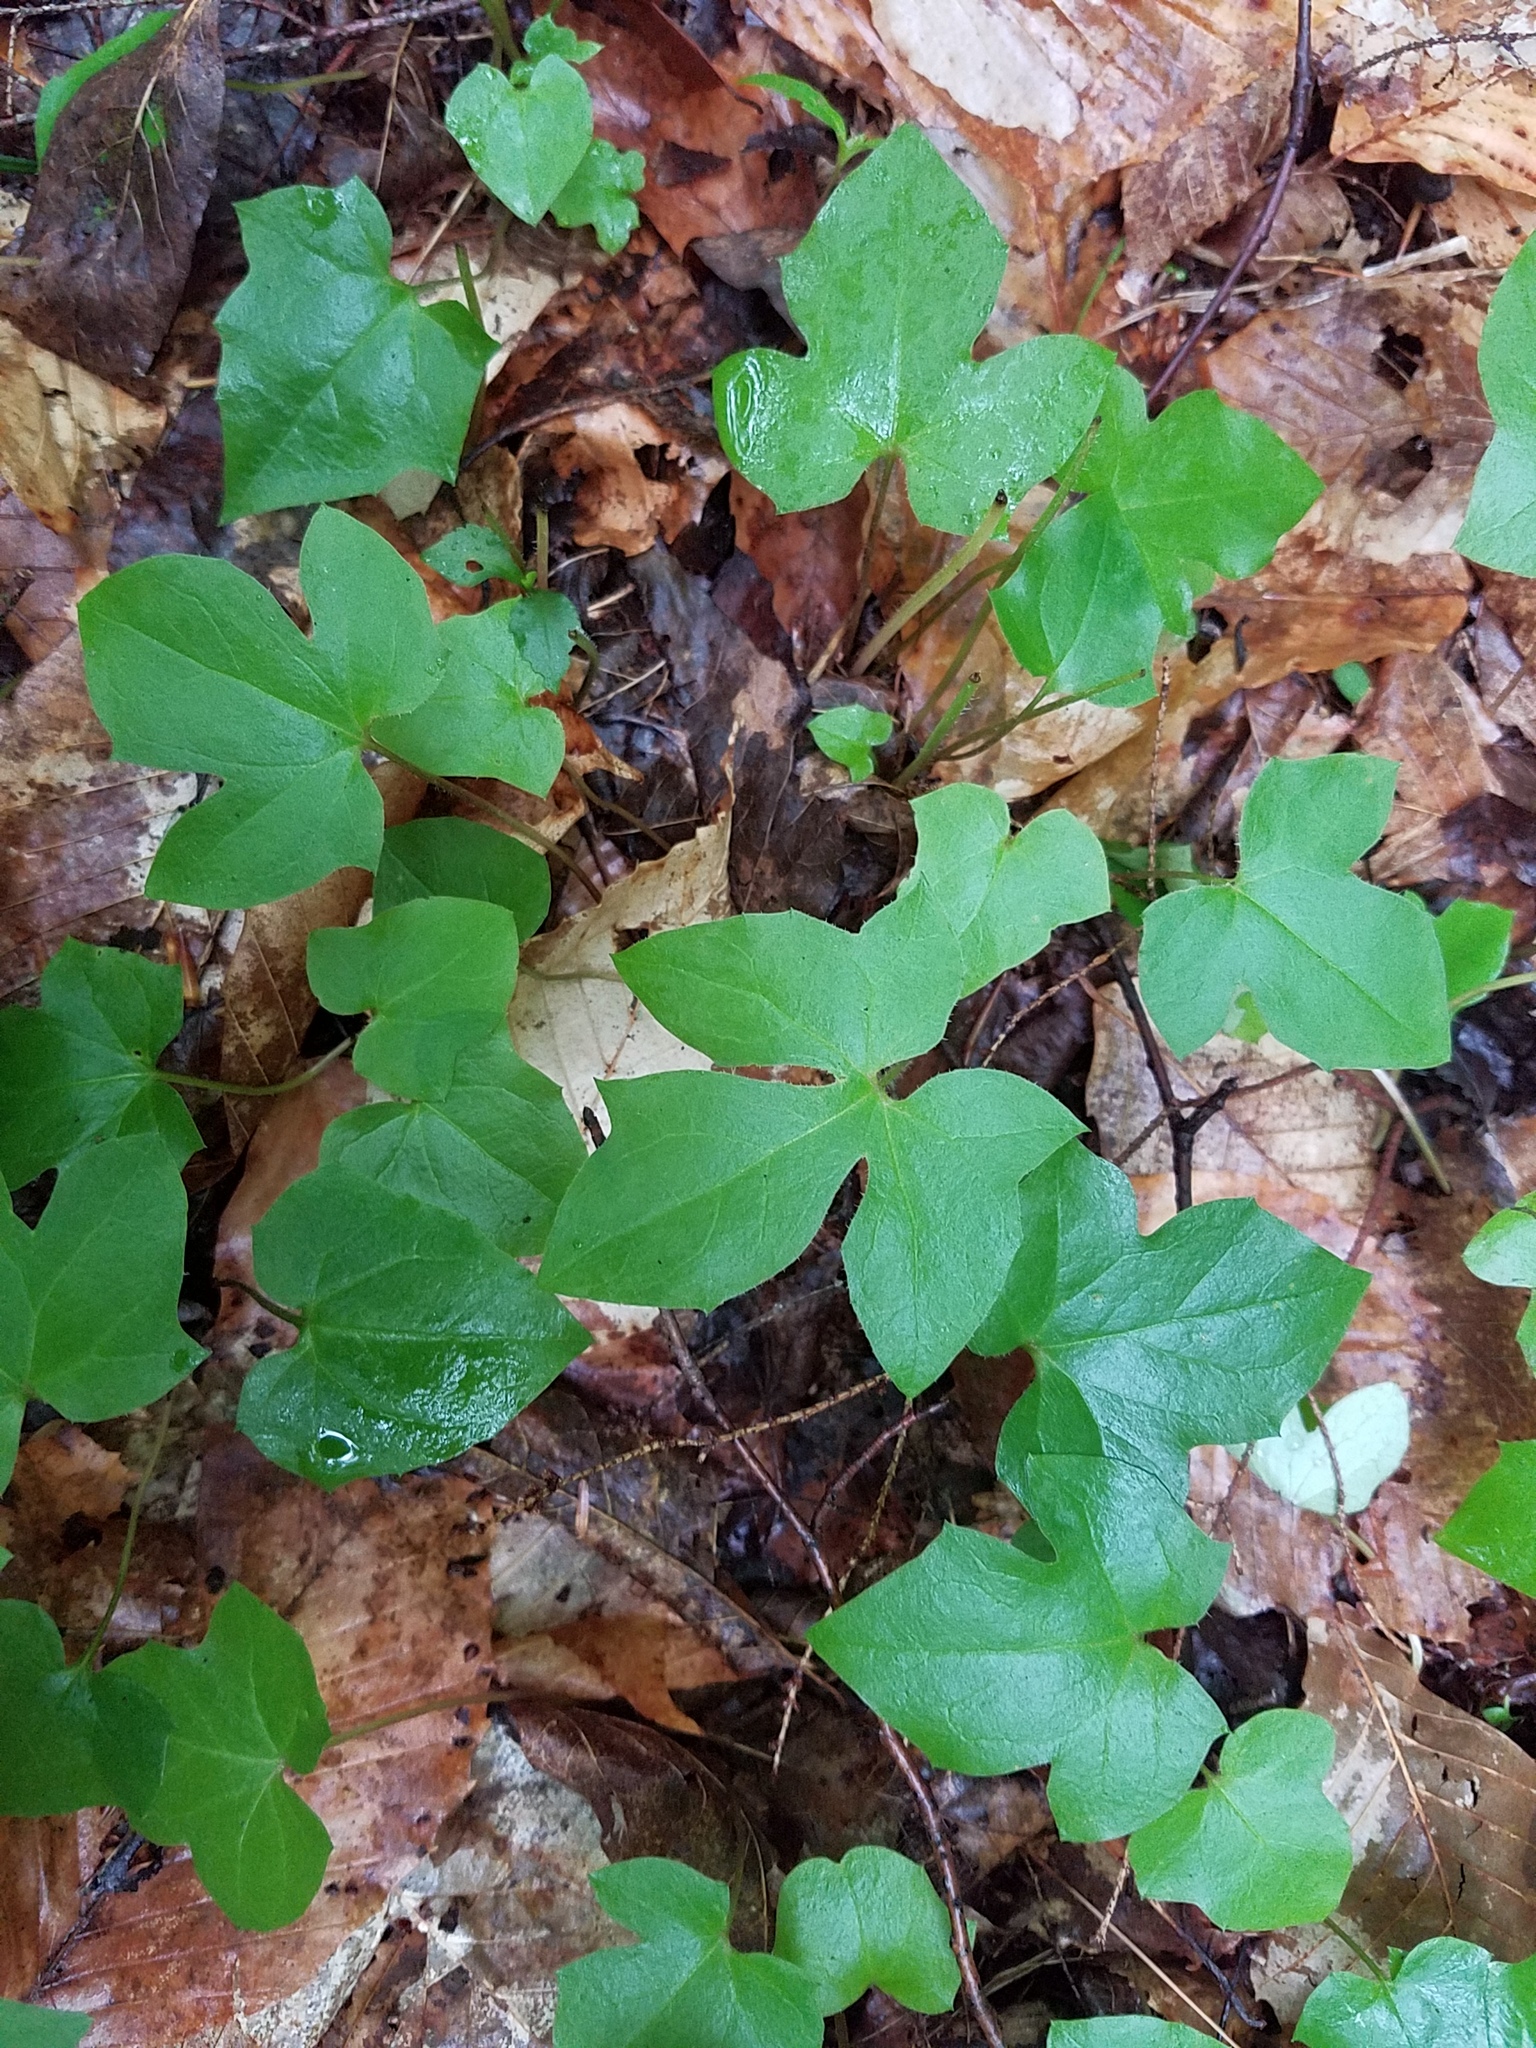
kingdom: Plantae
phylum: Tracheophyta
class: Magnoliopsida
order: Asterales
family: Asteraceae
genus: Nabalus
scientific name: Nabalus trifoliolatus
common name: Gall-of-the-earth
